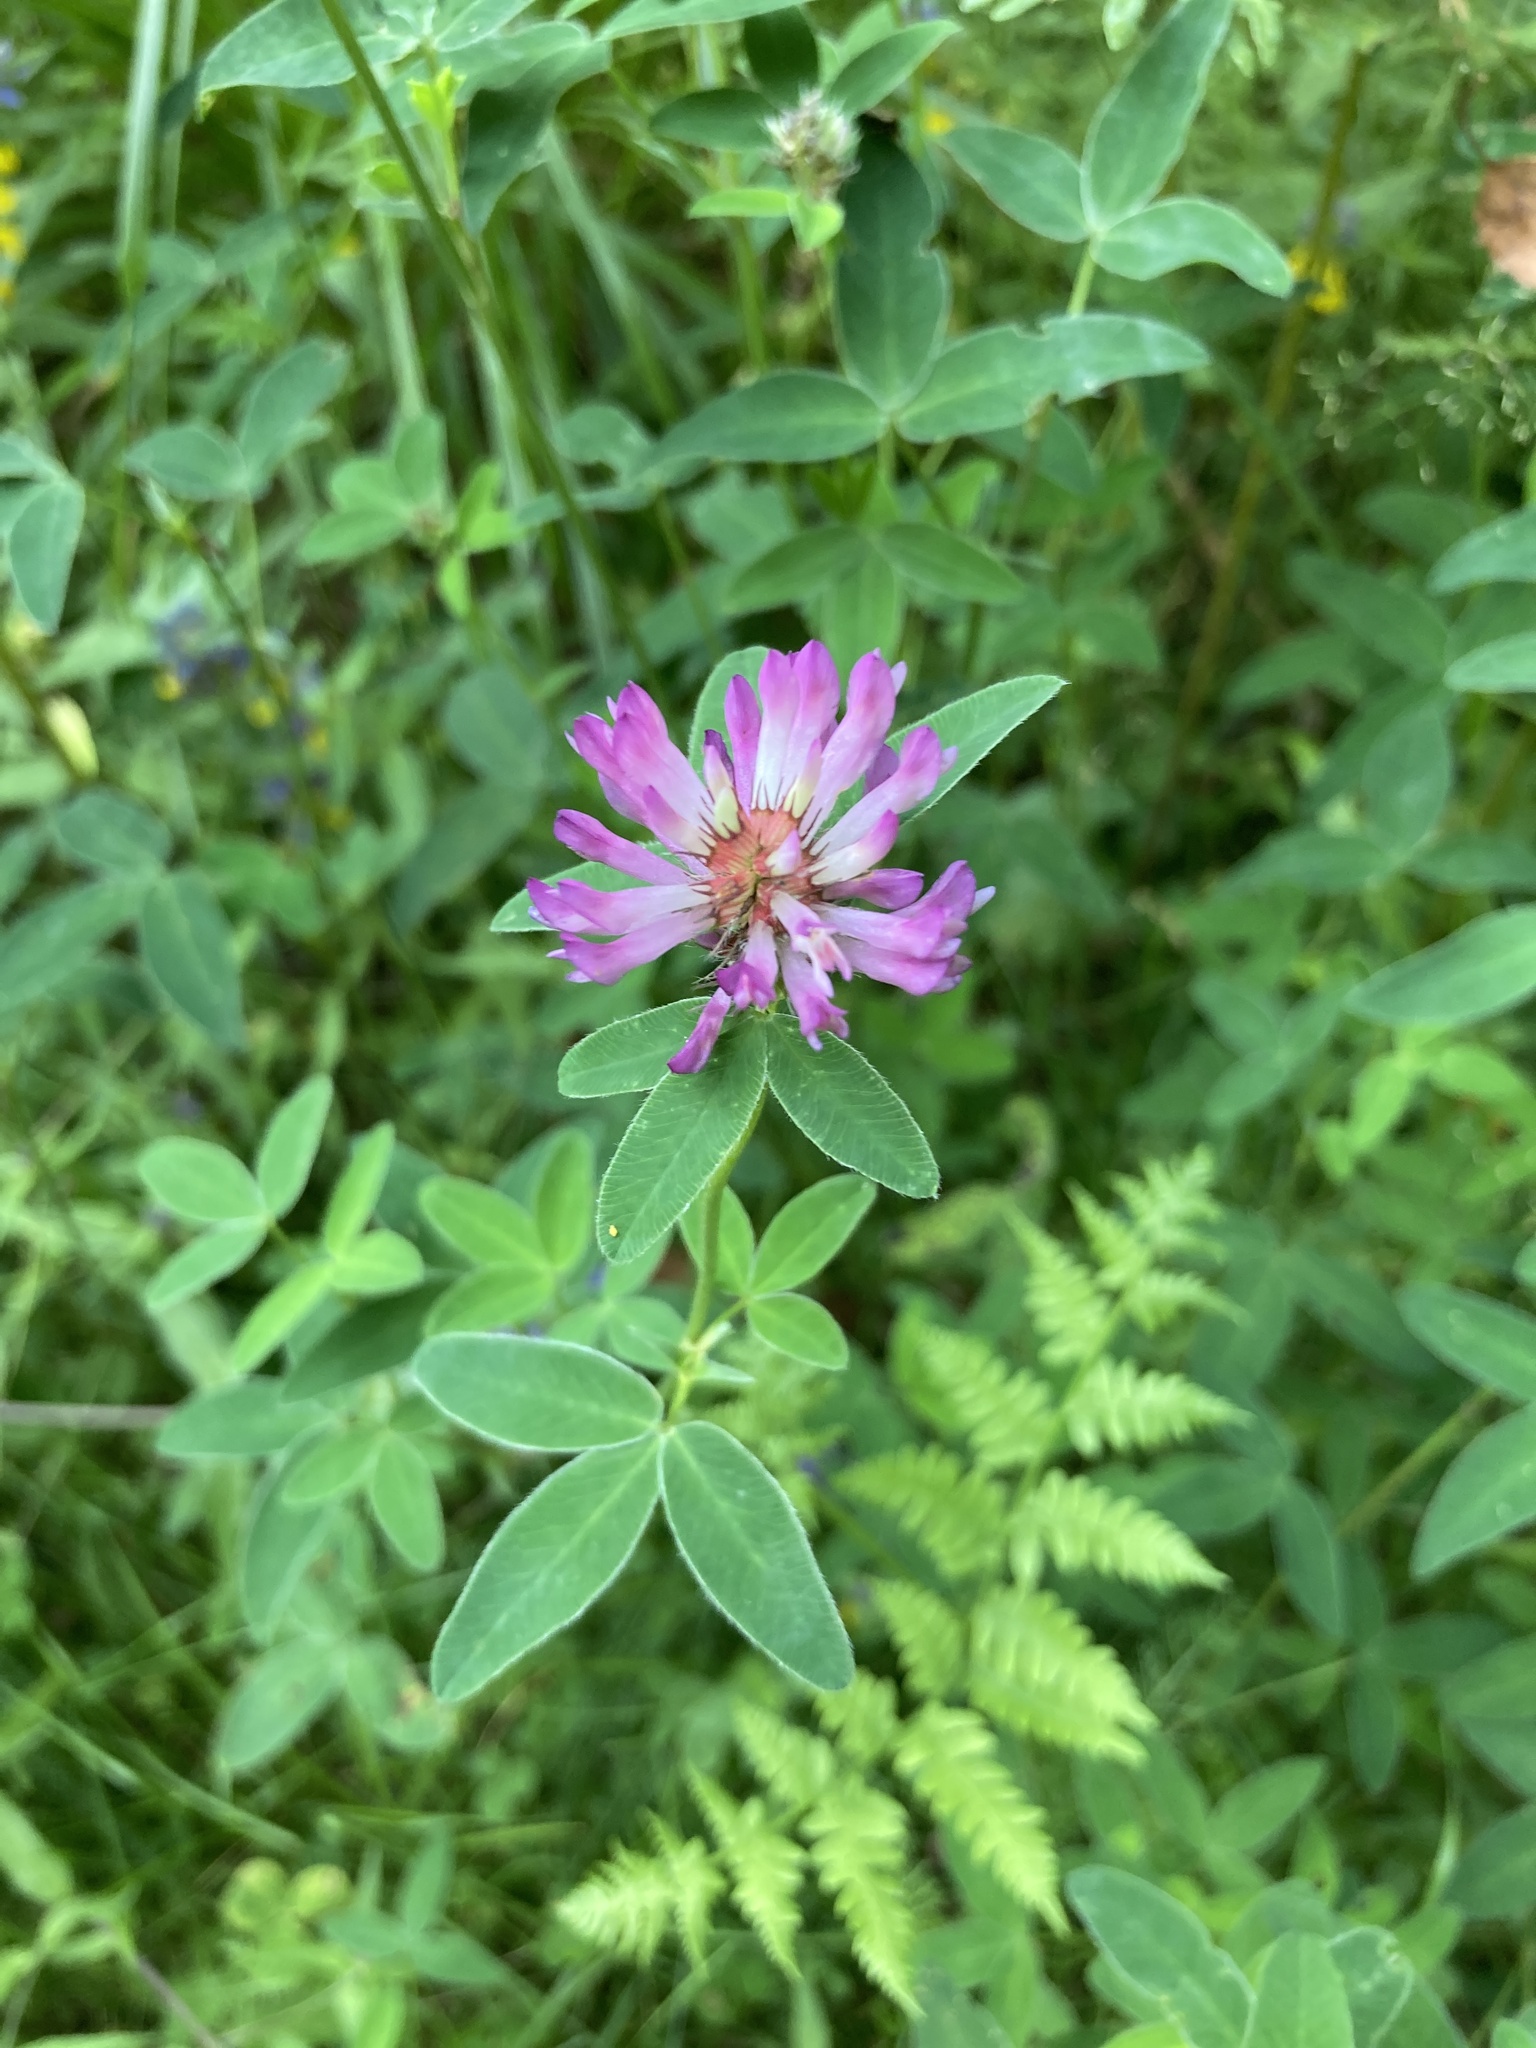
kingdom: Plantae
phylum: Tracheophyta
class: Magnoliopsida
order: Fabales
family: Fabaceae
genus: Trifolium
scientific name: Trifolium medium
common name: Zigzag clover
